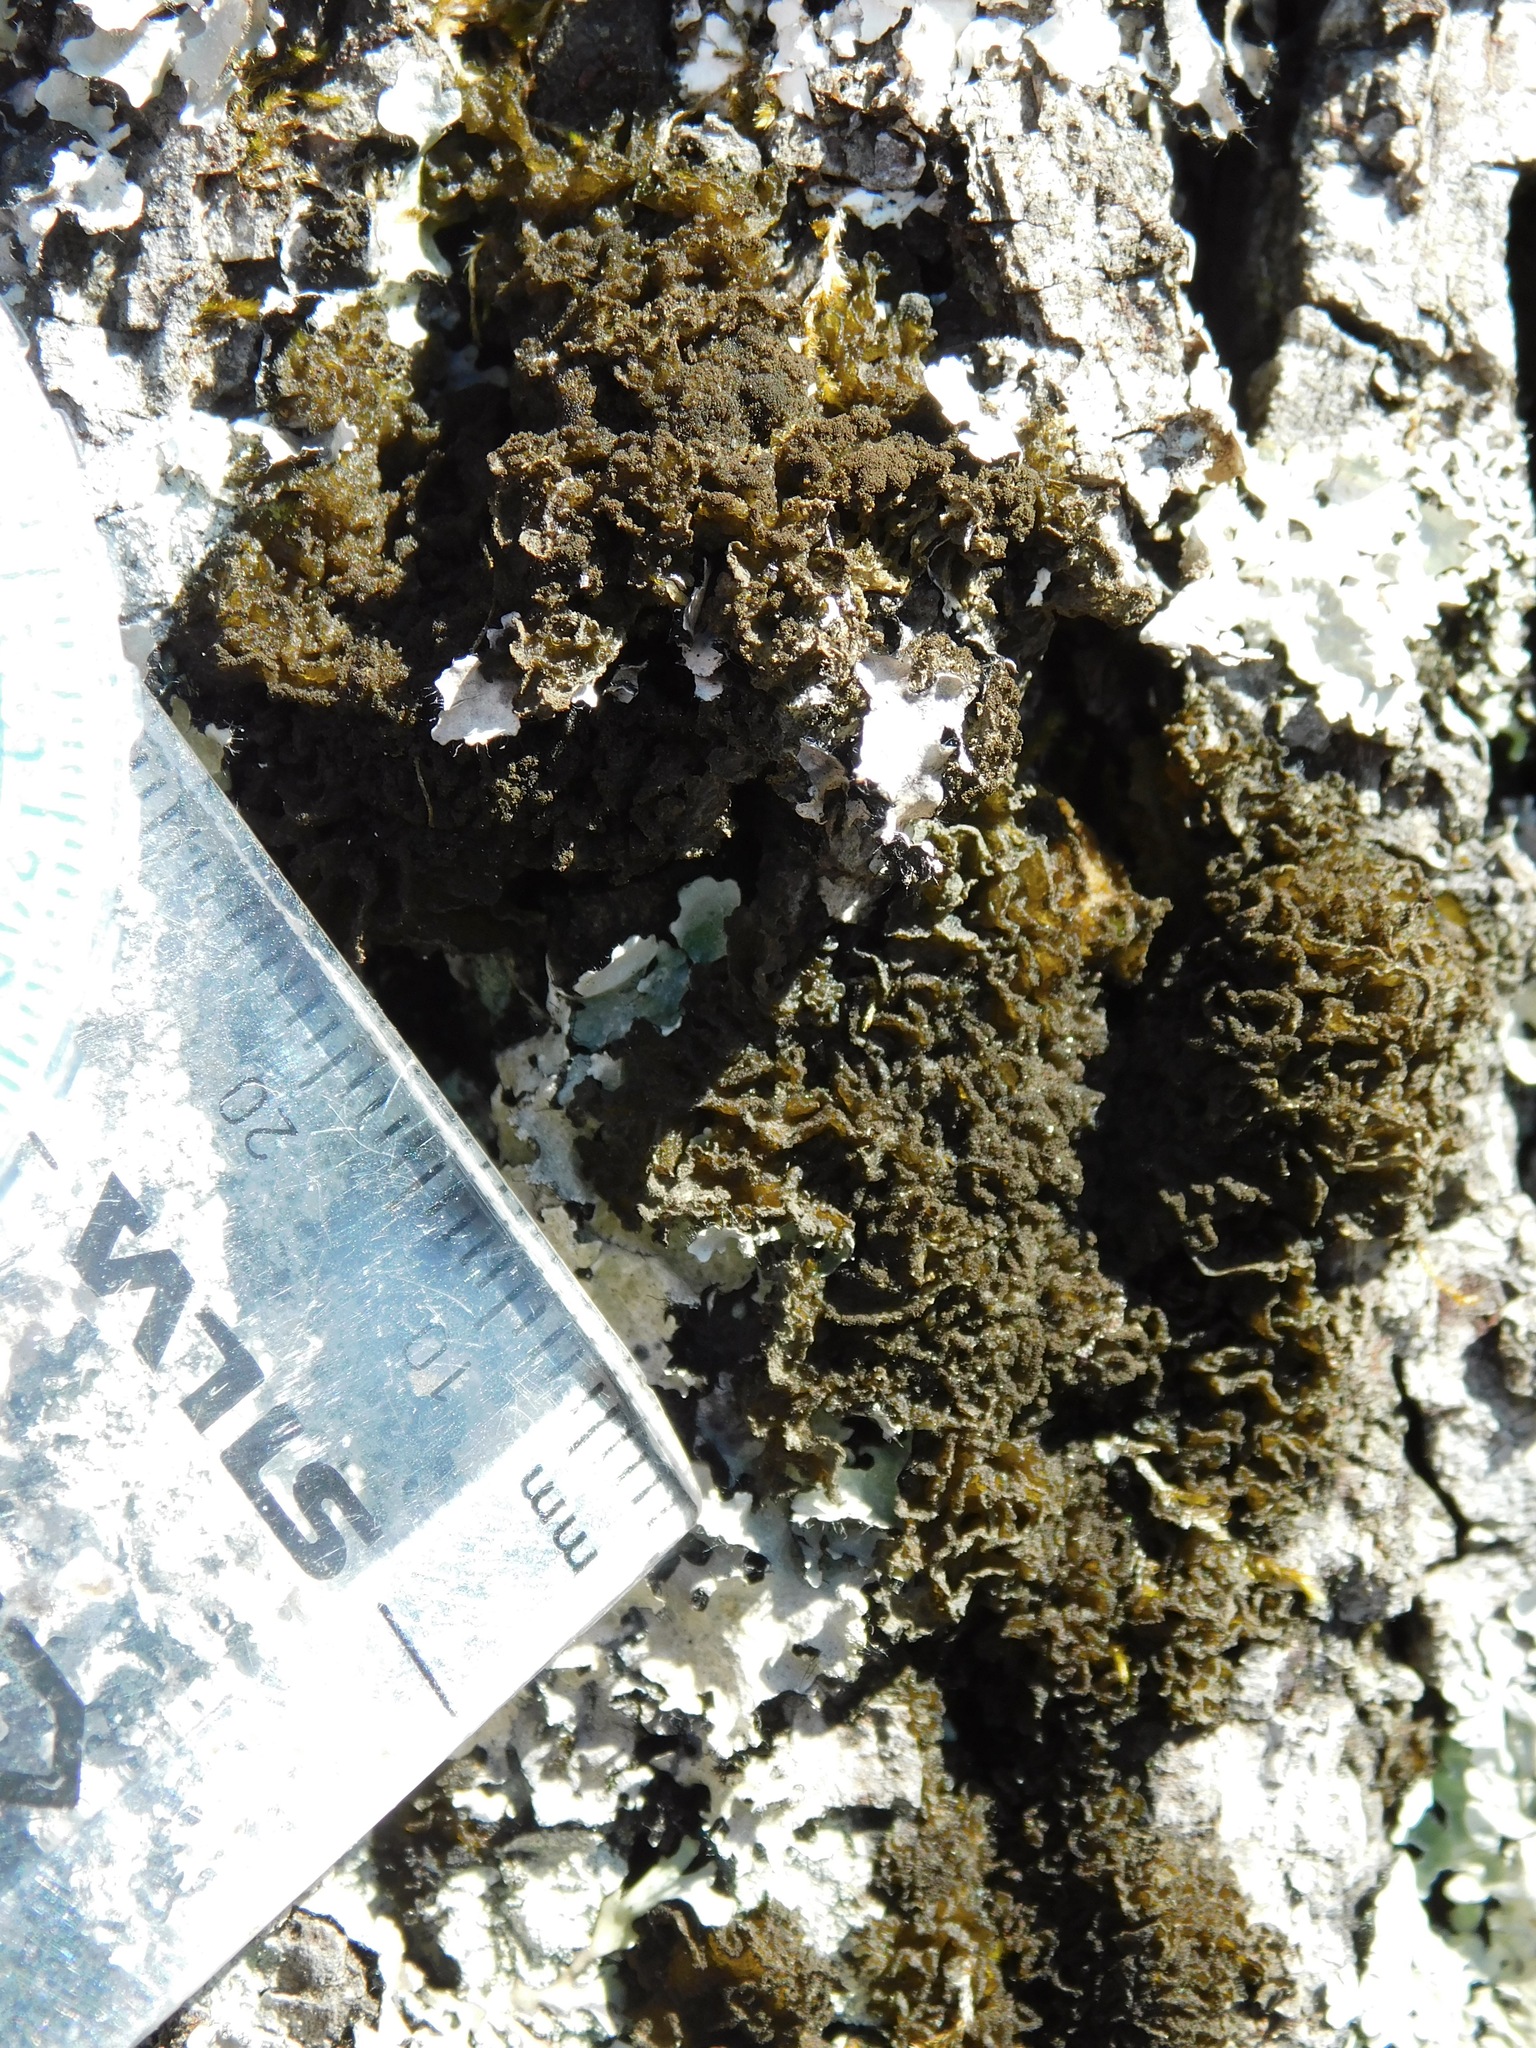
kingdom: Fungi
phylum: Ascomycota
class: Lecanoromycetes
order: Peltigerales
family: Collemataceae
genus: Leptogium
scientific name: Leptogium austroamericanum
